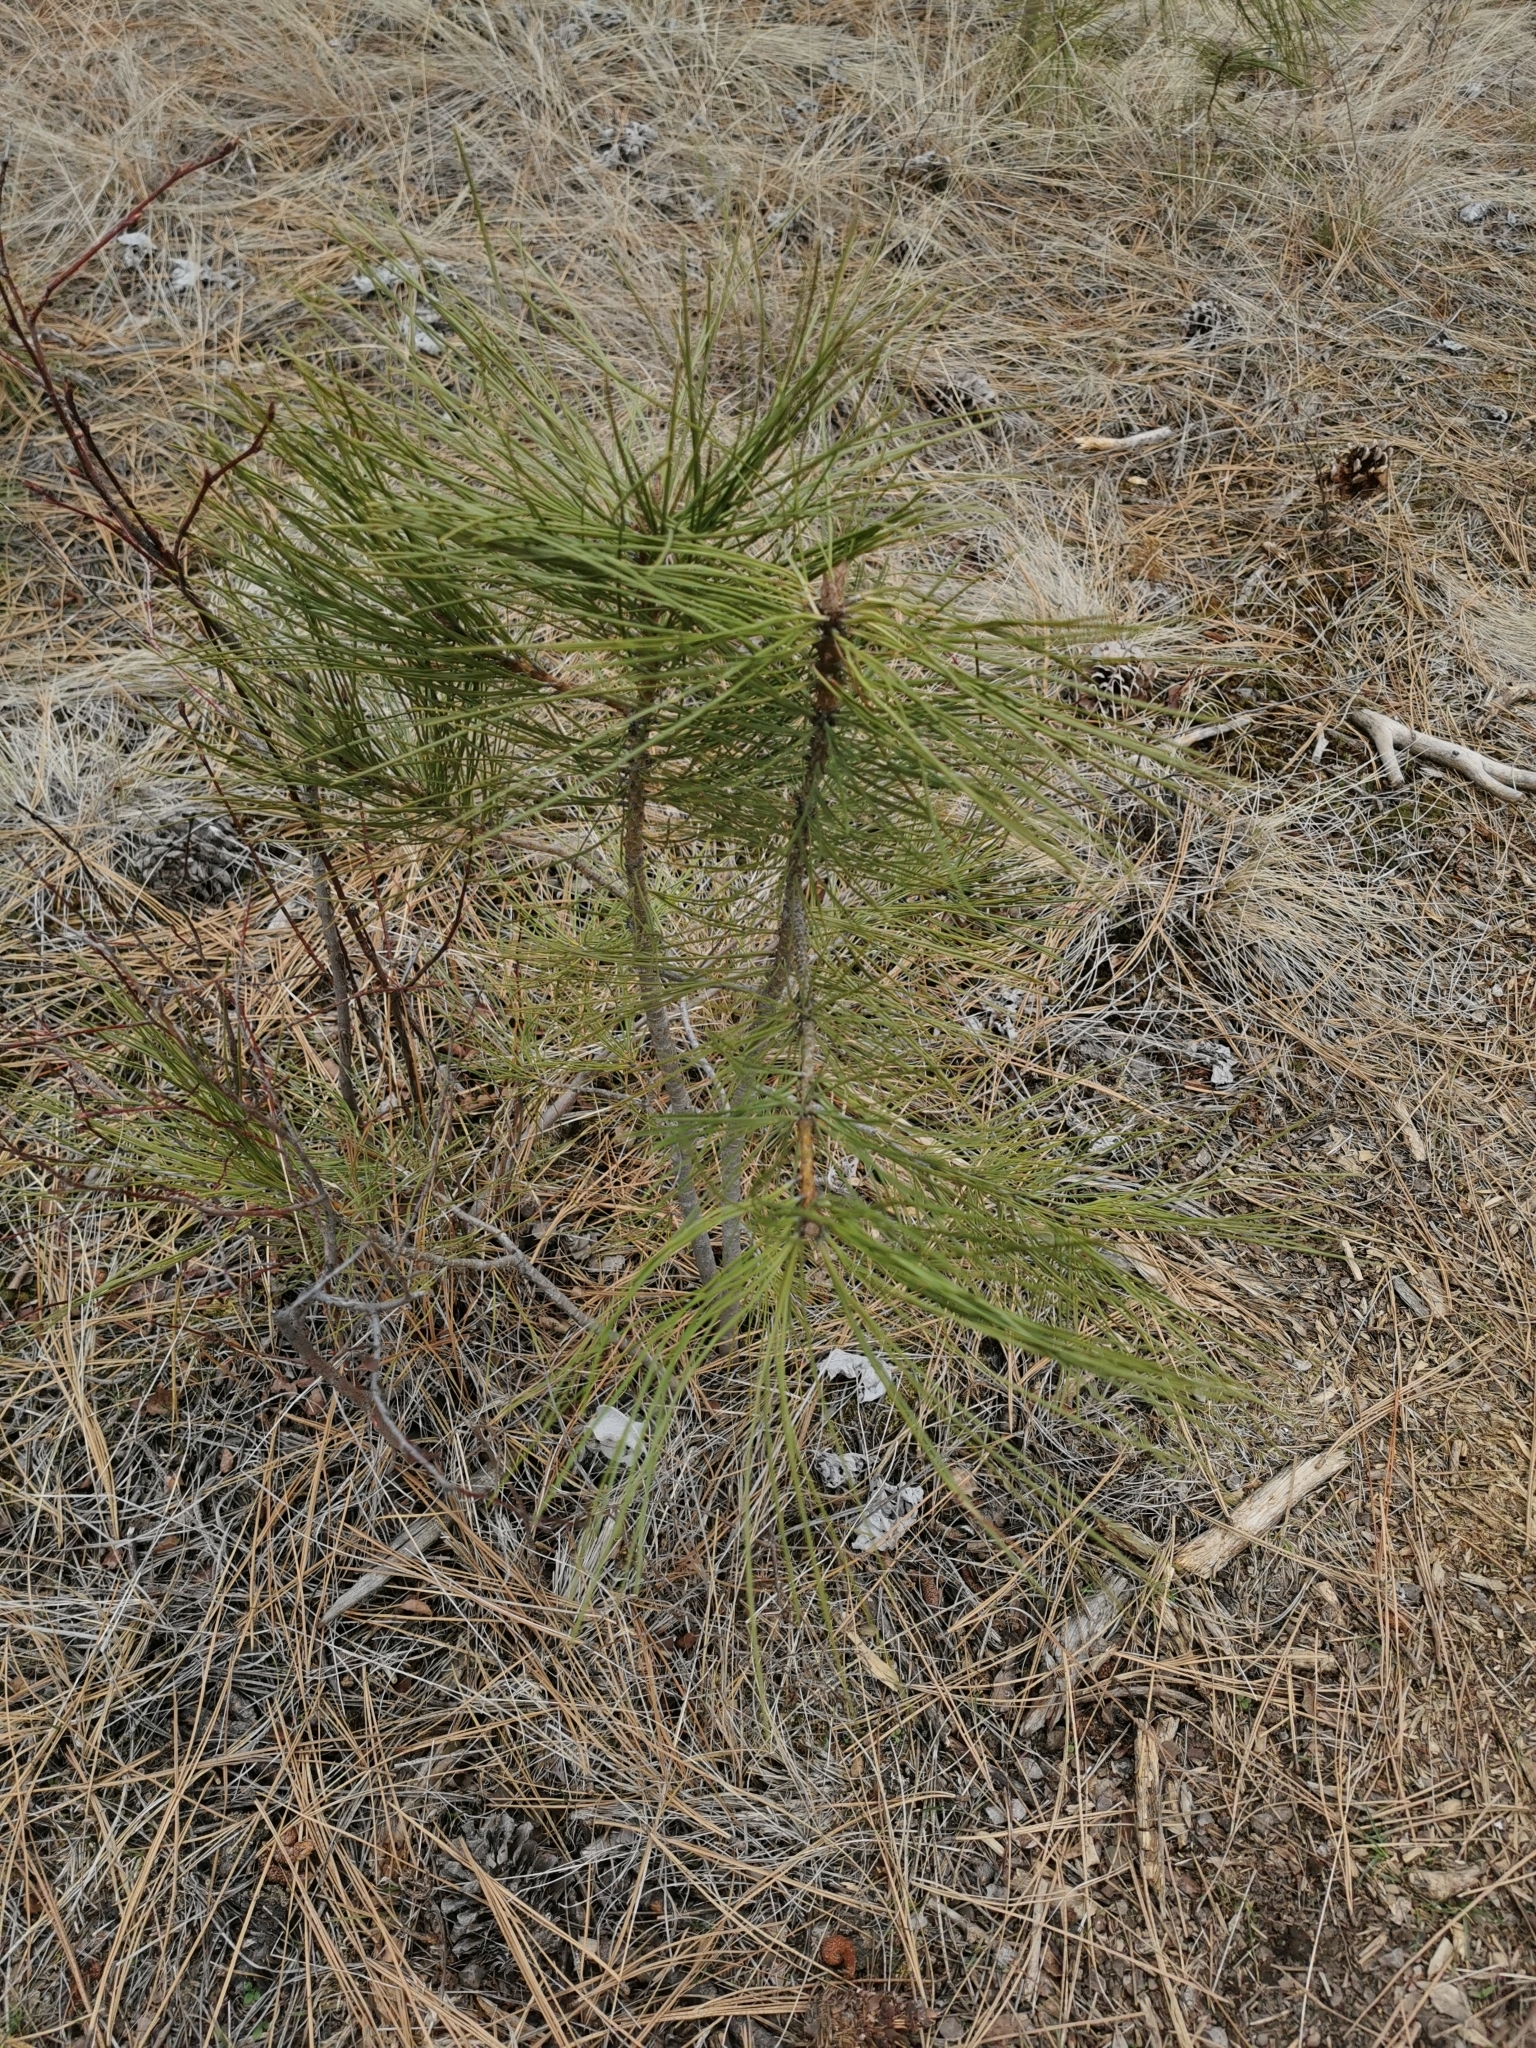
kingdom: Plantae
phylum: Tracheophyta
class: Pinopsida
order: Pinales
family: Pinaceae
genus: Pinus
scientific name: Pinus ponderosa
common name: Western yellow-pine
